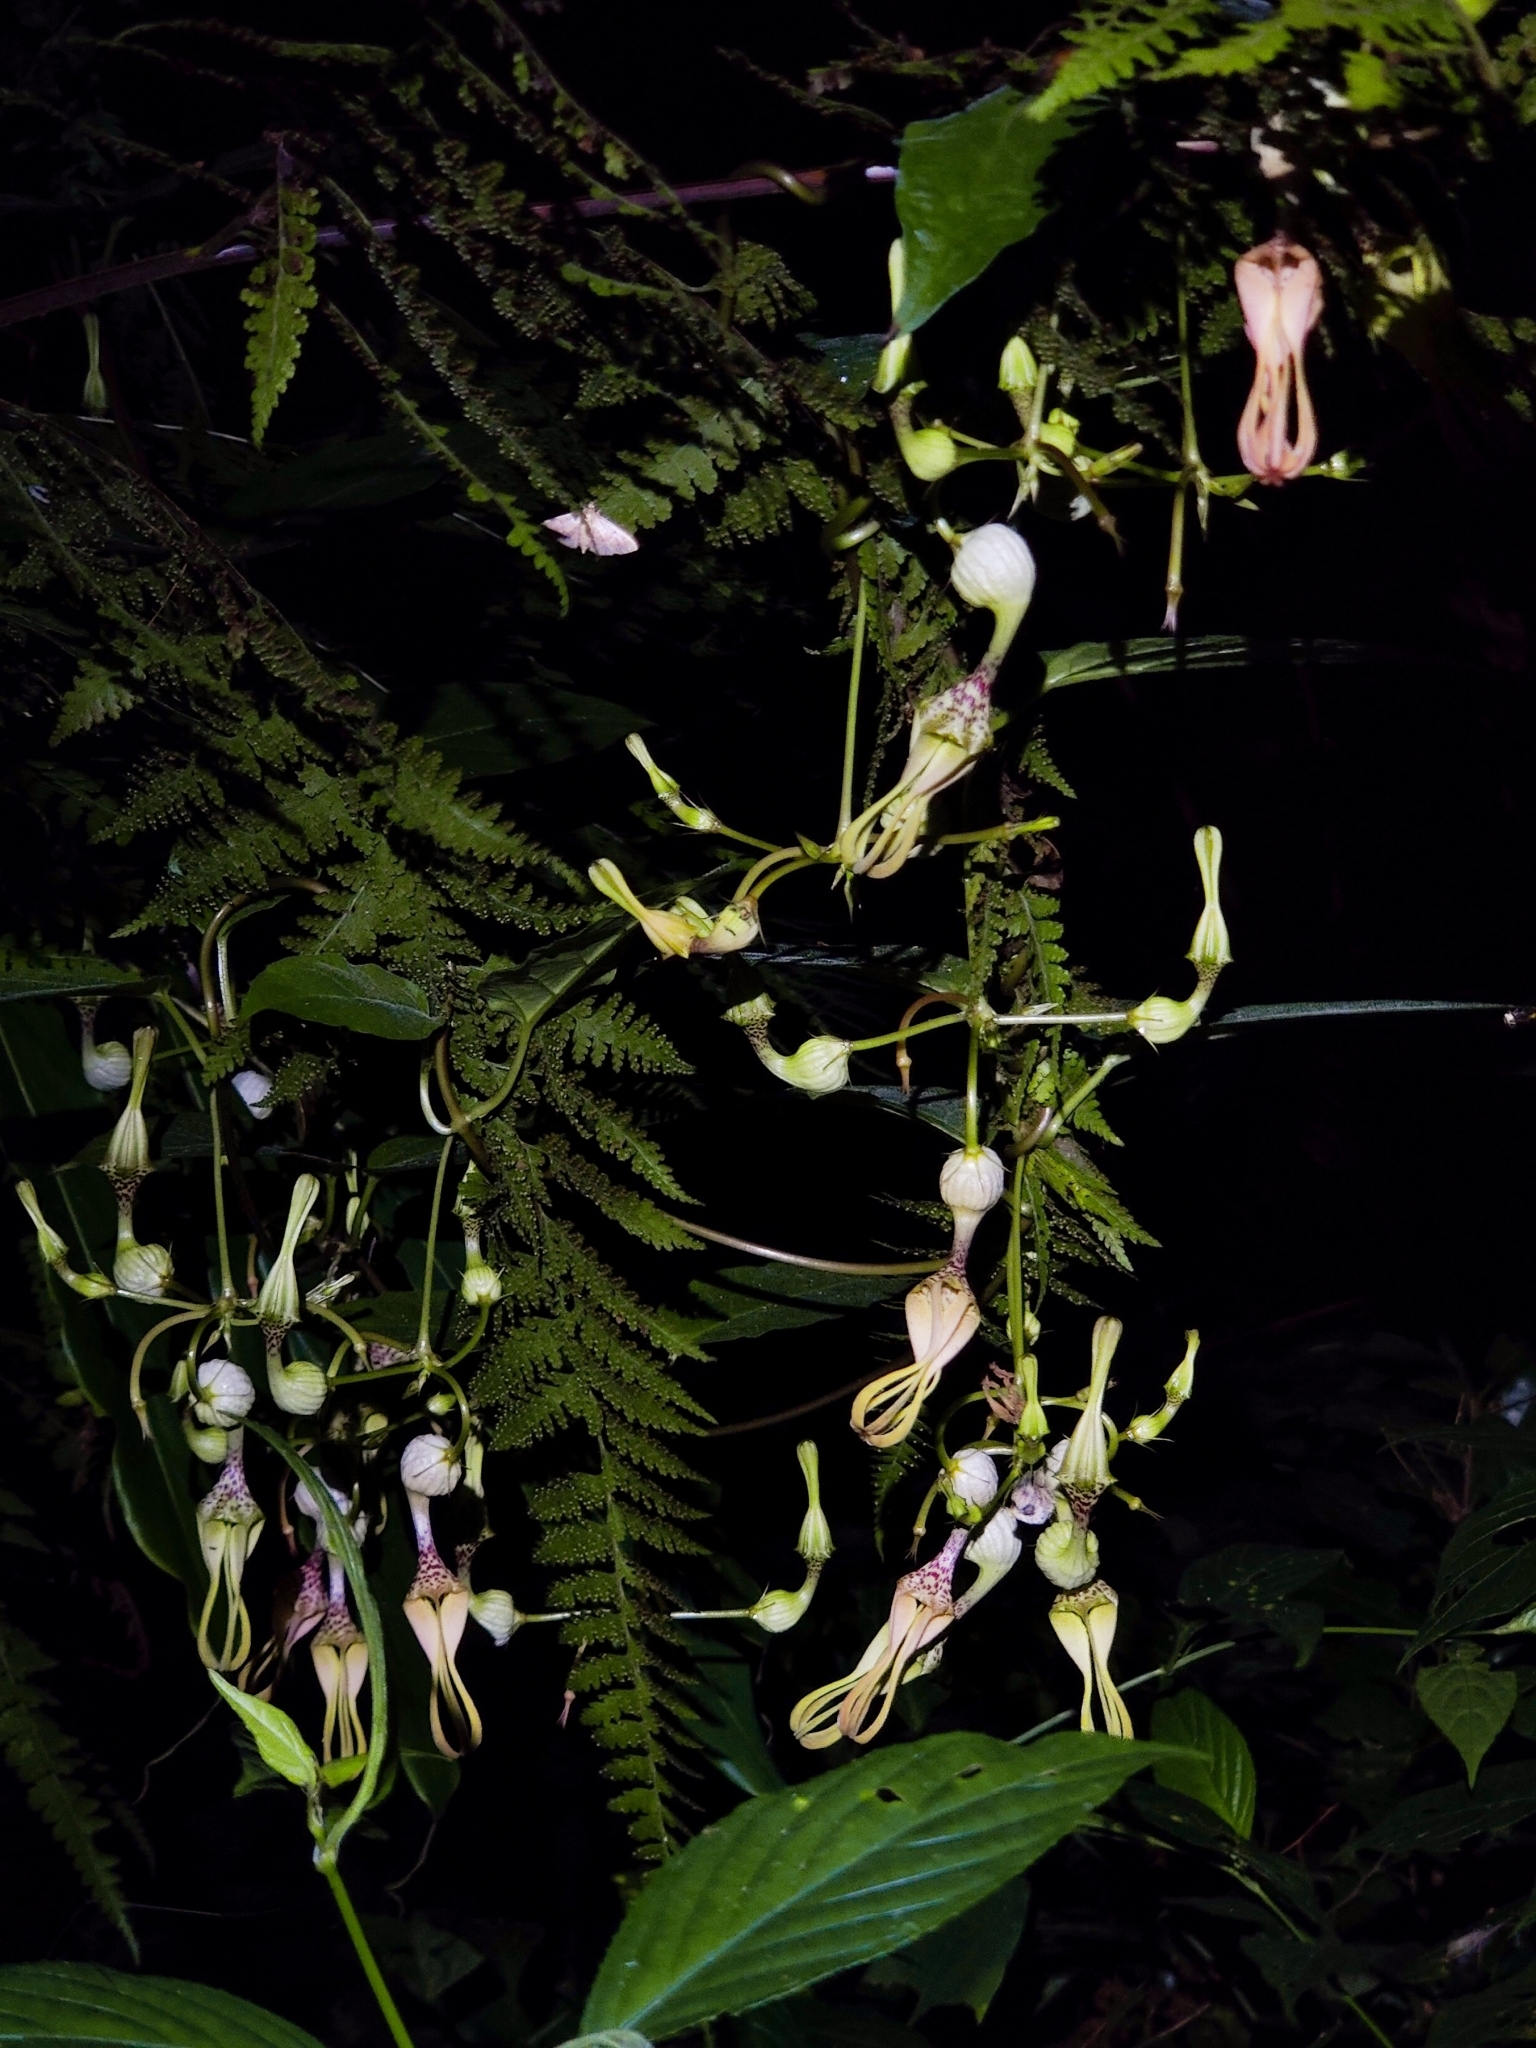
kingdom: Plantae
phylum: Tracheophyta
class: Magnoliopsida
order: Gentianales
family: Apocynaceae
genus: Ceropegia
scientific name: Ceropegia decaisneana
